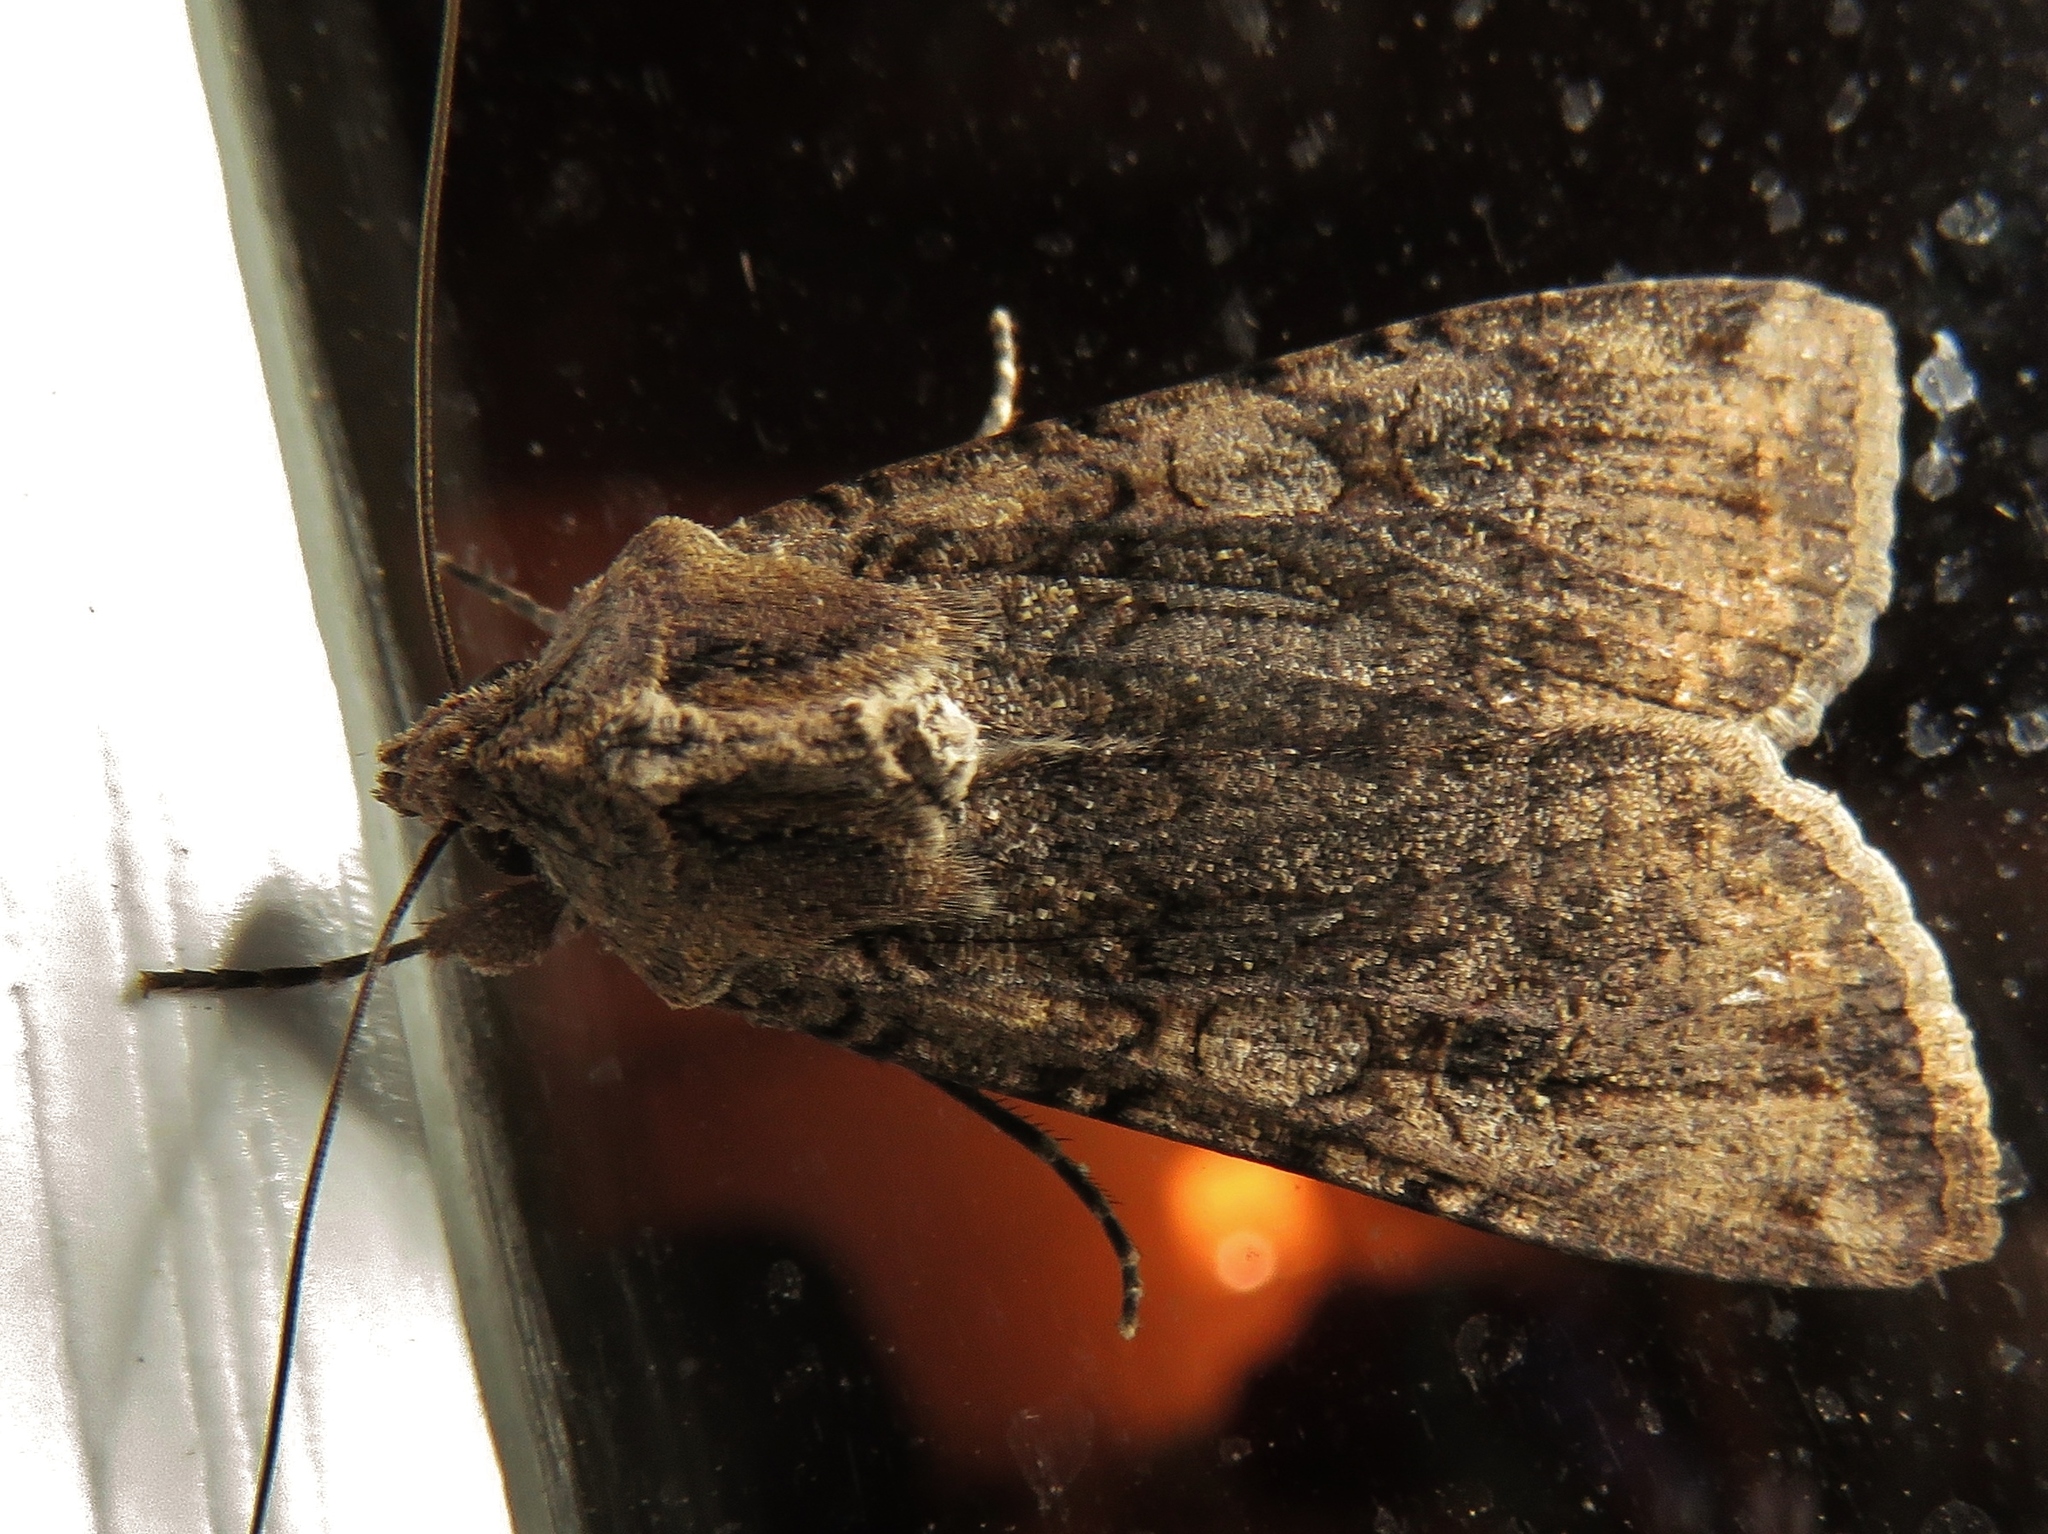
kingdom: Animalia
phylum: Arthropoda
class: Insecta
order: Lepidoptera
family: Noctuidae
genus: Peridroma
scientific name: Peridroma saucia
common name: Pearly underwing
